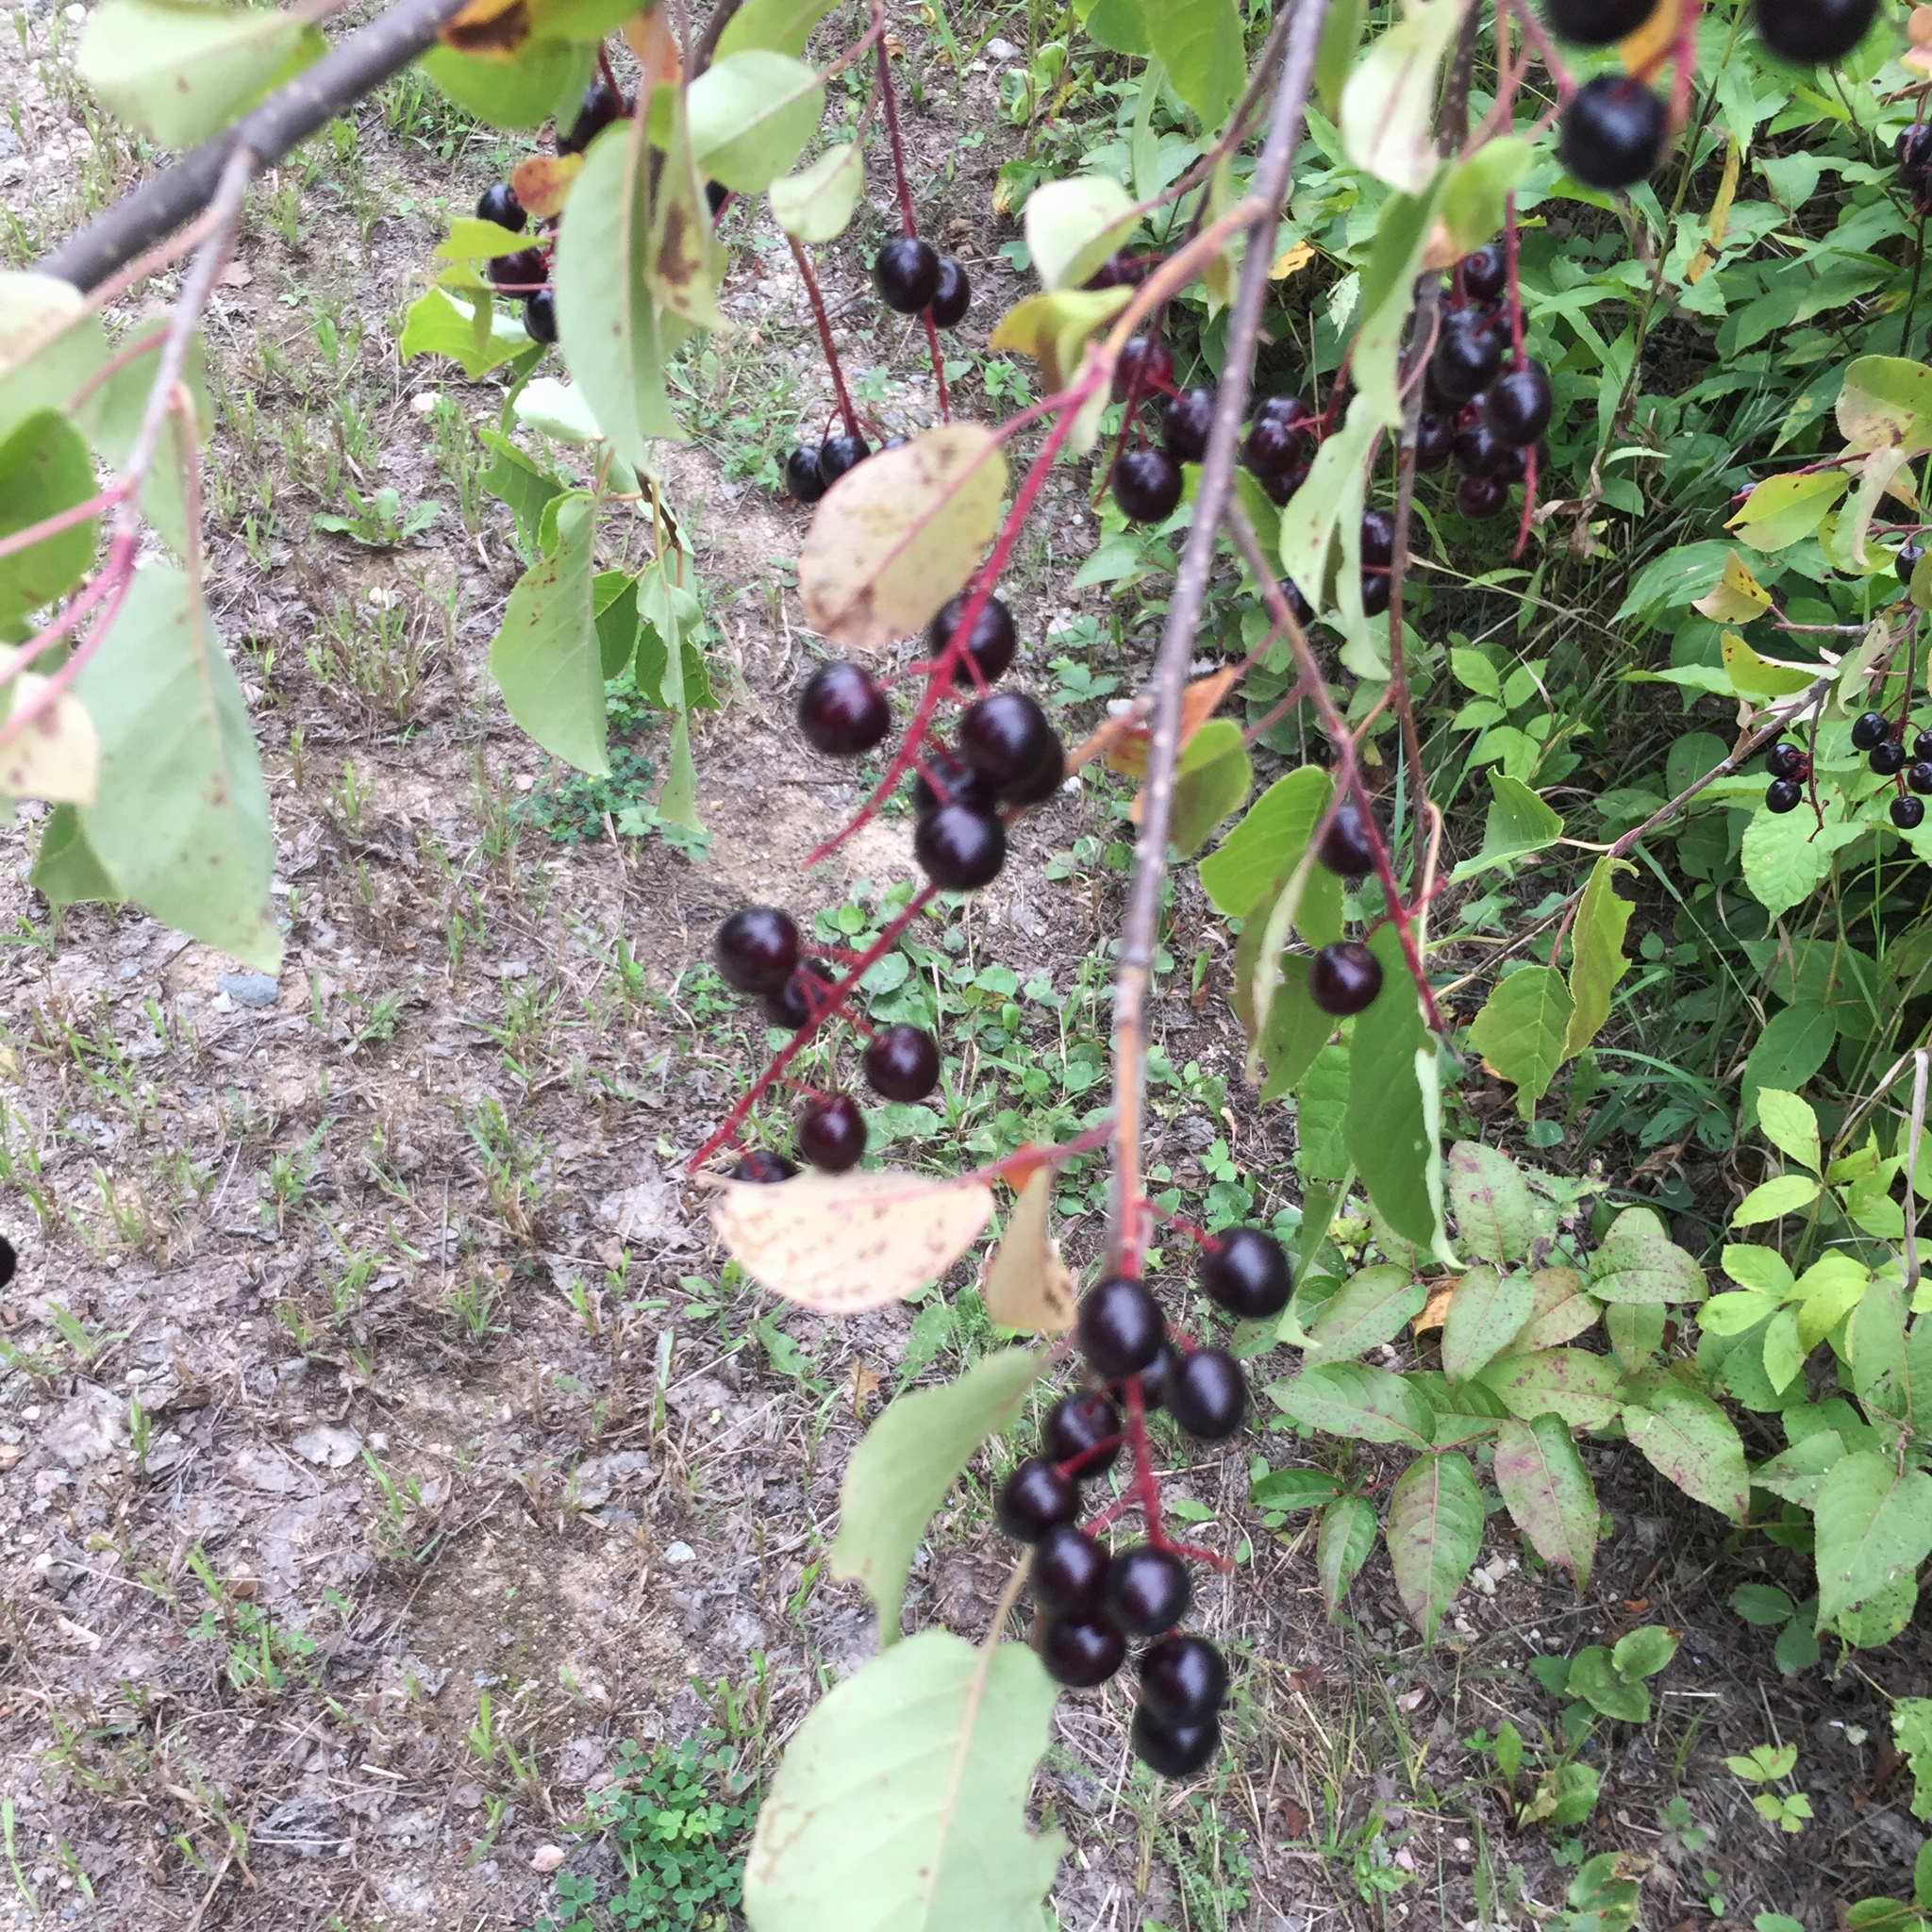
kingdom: Plantae
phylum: Tracheophyta
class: Magnoliopsida
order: Rosales
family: Rosaceae
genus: Prunus
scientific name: Prunus virginiana
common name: Chokecherry
